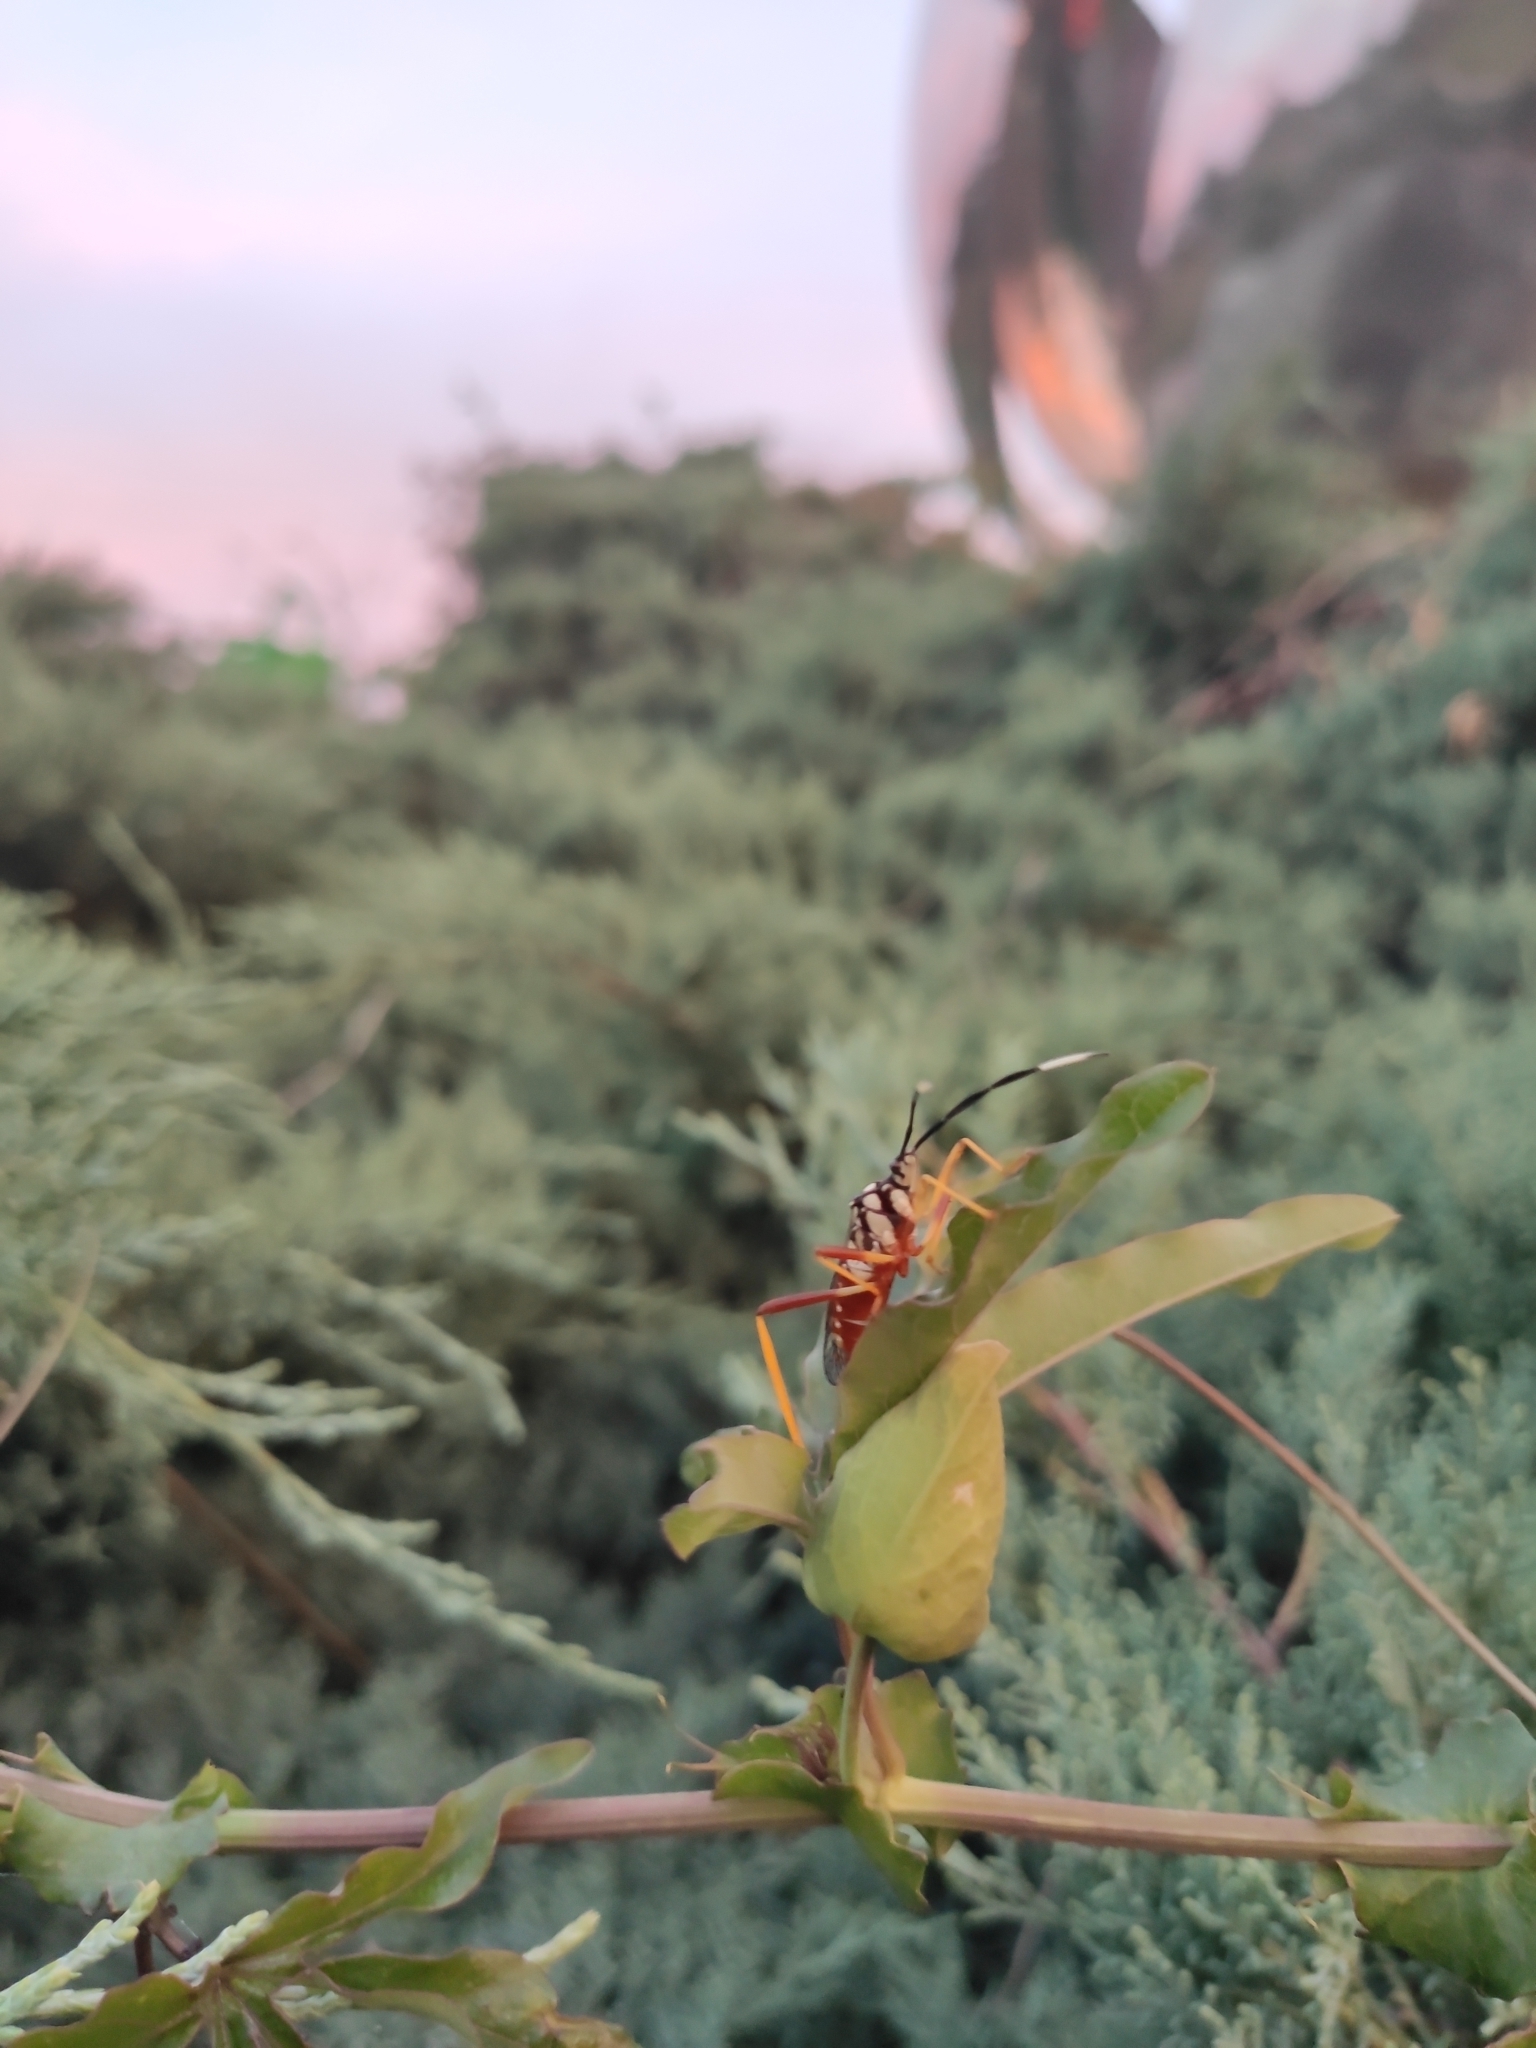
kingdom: Animalia
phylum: Arthropoda
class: Insecta
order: Hemiptera
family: Coreidae
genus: Holhymenia
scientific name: Holhymenia histrio
